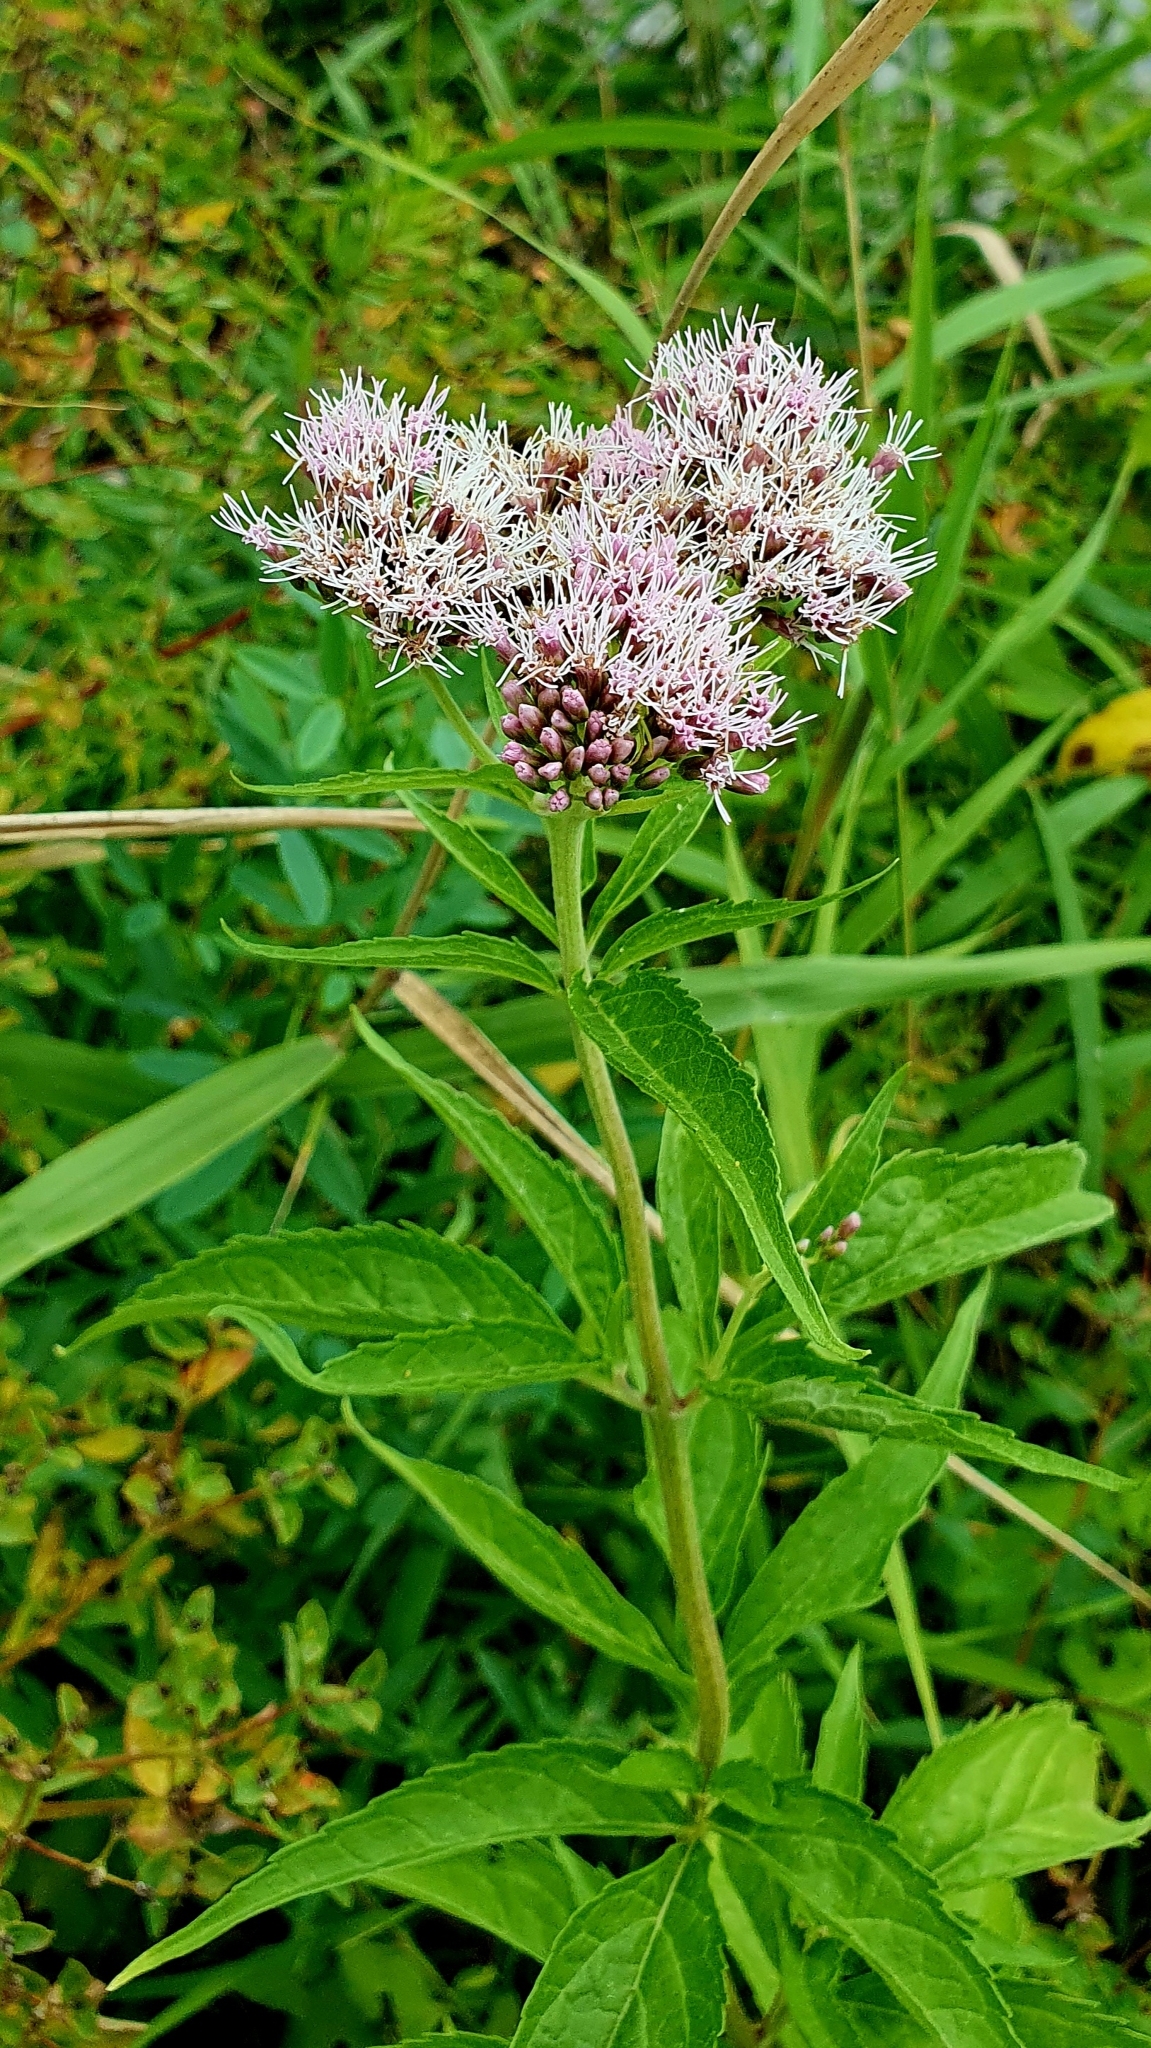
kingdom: Plantae
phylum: Tracheophyta
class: Magnoliopsida
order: Asterales
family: Asteraceae
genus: Eupatorium
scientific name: Eupatorium cannabinum
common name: Hemp-agrimony
